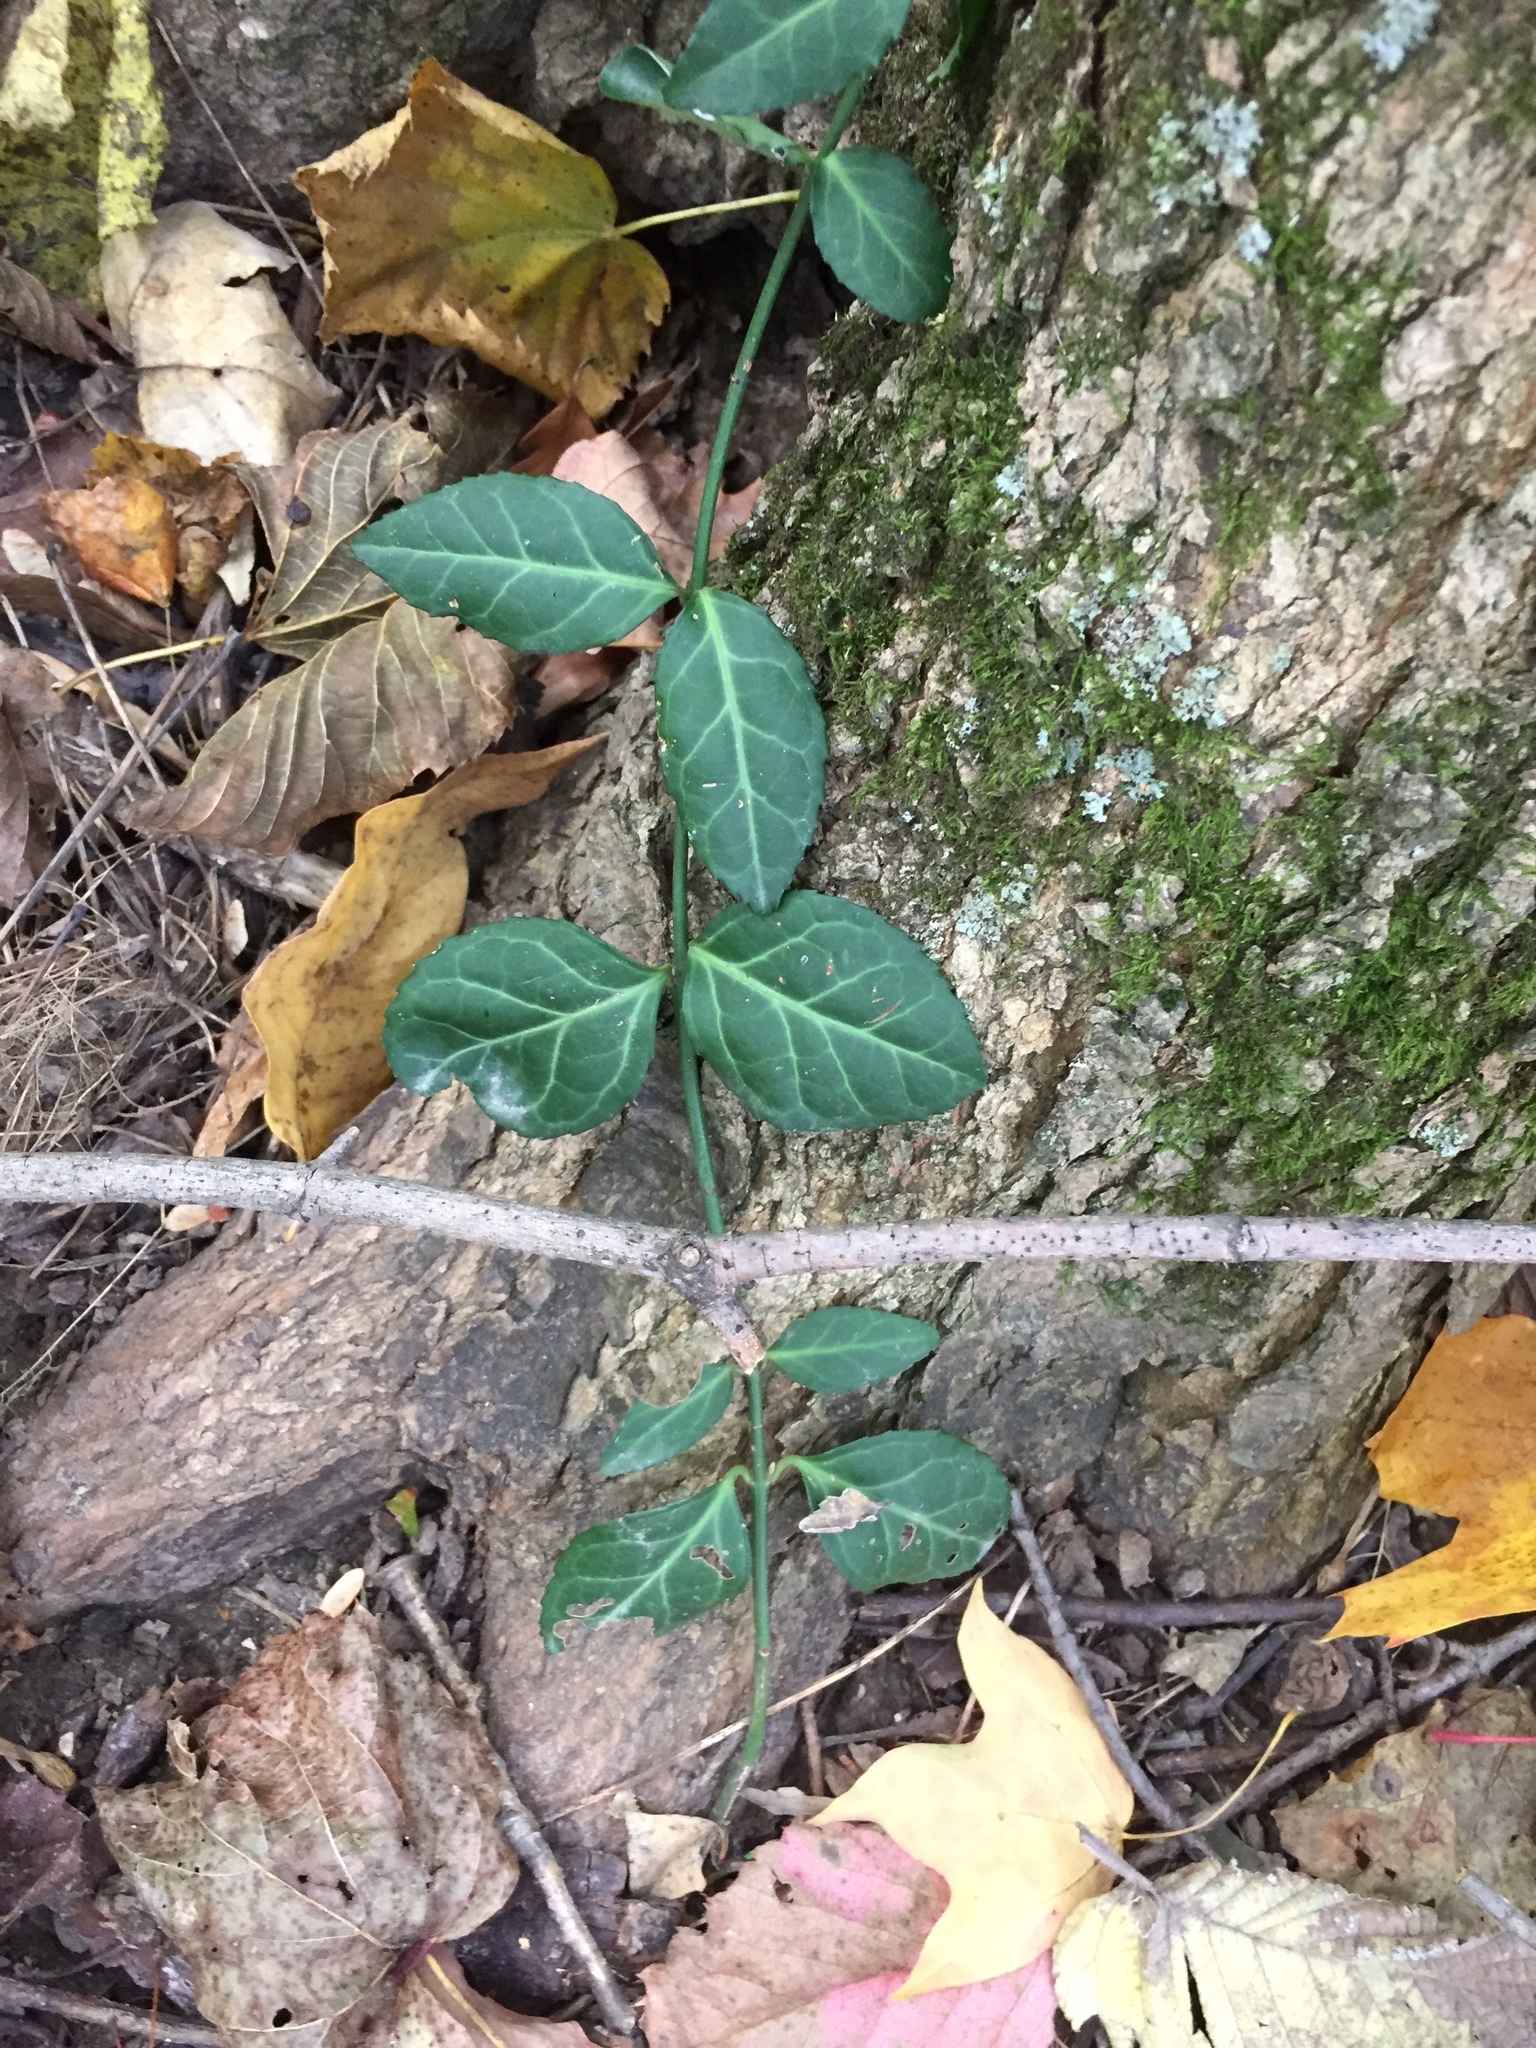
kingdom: Plantae
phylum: Tracheophyta
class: Magnoliopsida
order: Celastrales
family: Celastraceae
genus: Euonymus
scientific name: Euonymus fortunei
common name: Climbing euonymus
